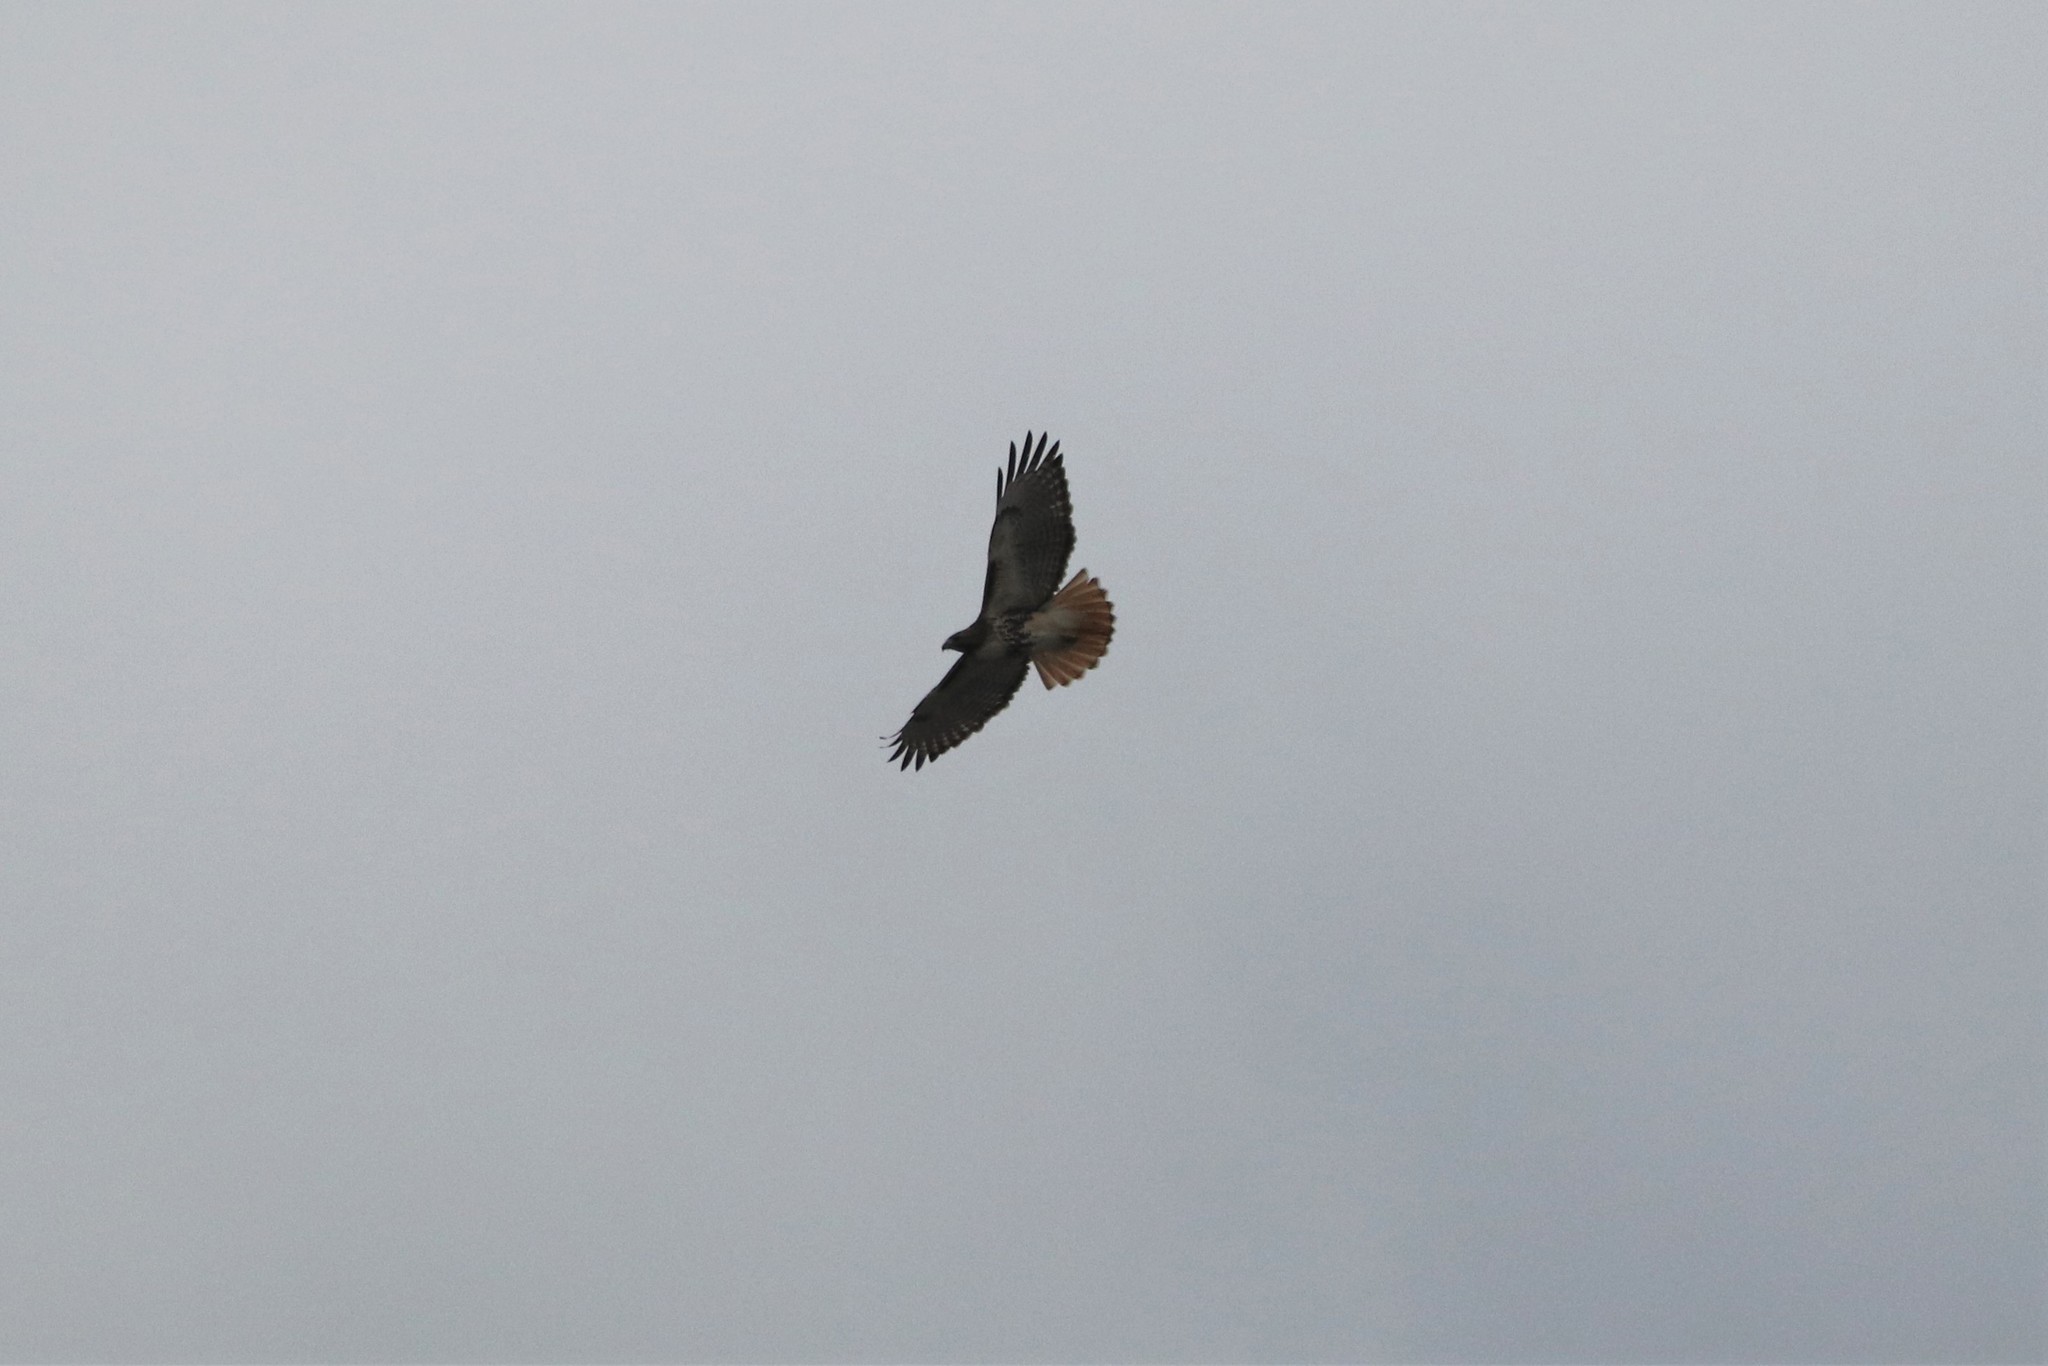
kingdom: Animalia
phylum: Chordata
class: Aves
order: Accipitriformes
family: Accipitridae
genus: Buteo
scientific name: Buteo jamaicensis
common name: Red-tailed hawk
